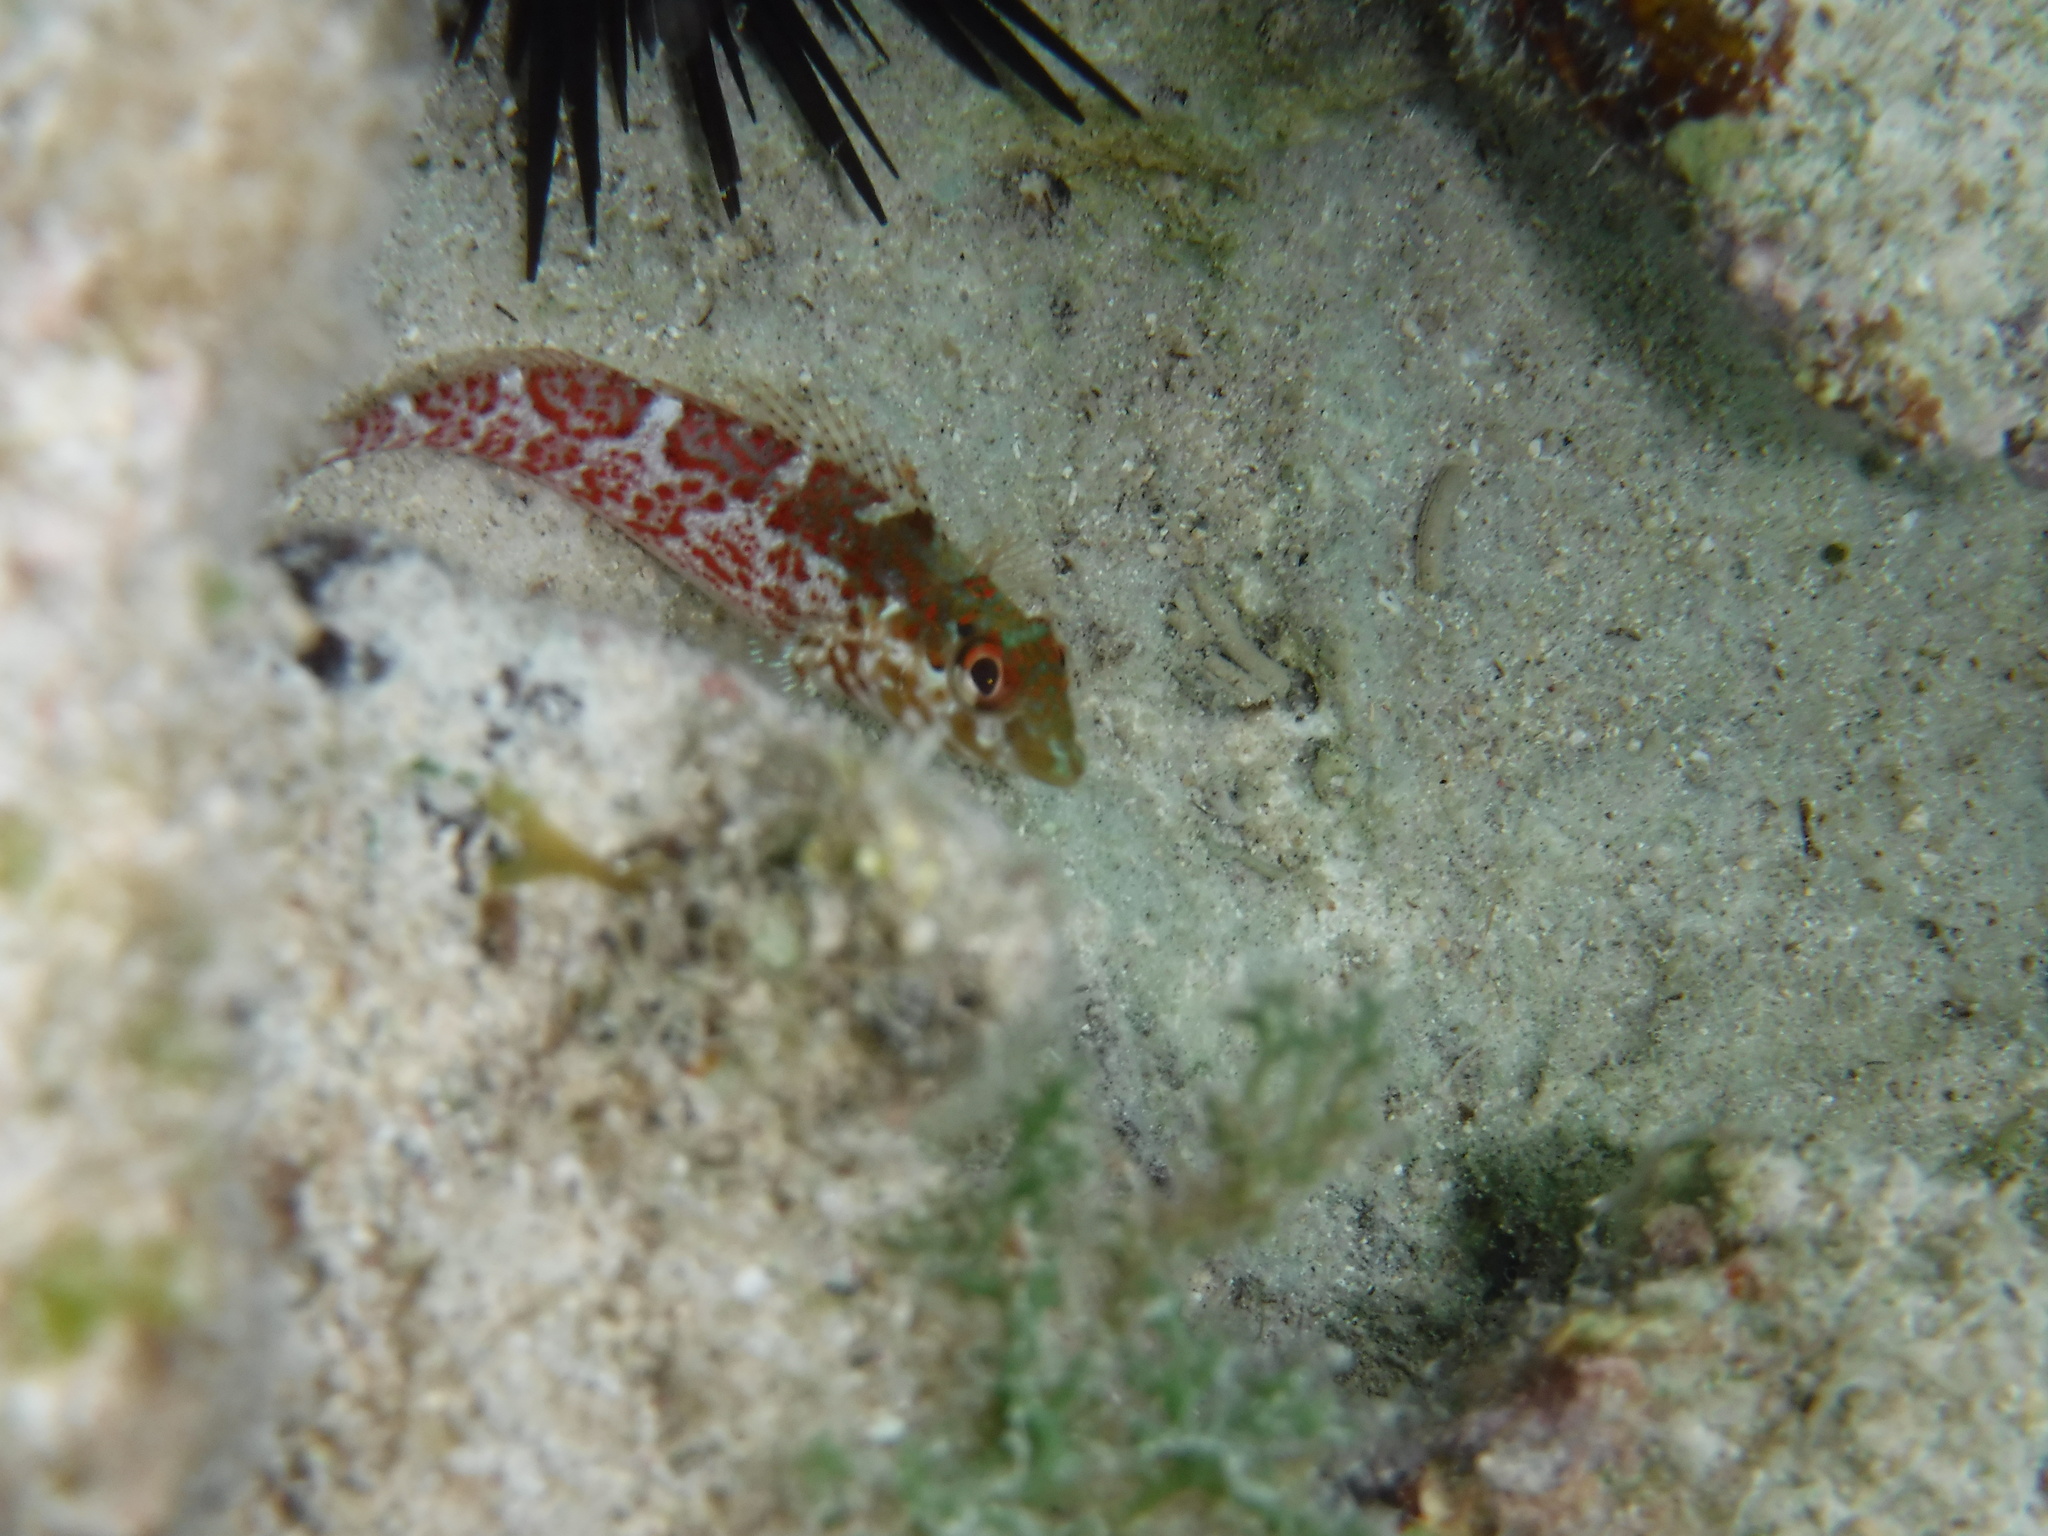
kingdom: Animalia
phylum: Chordata
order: Perciformes
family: Labrisomidae
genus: Malacoctenus
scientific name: Malacoctenus triangulatus
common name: Saddled blenny
